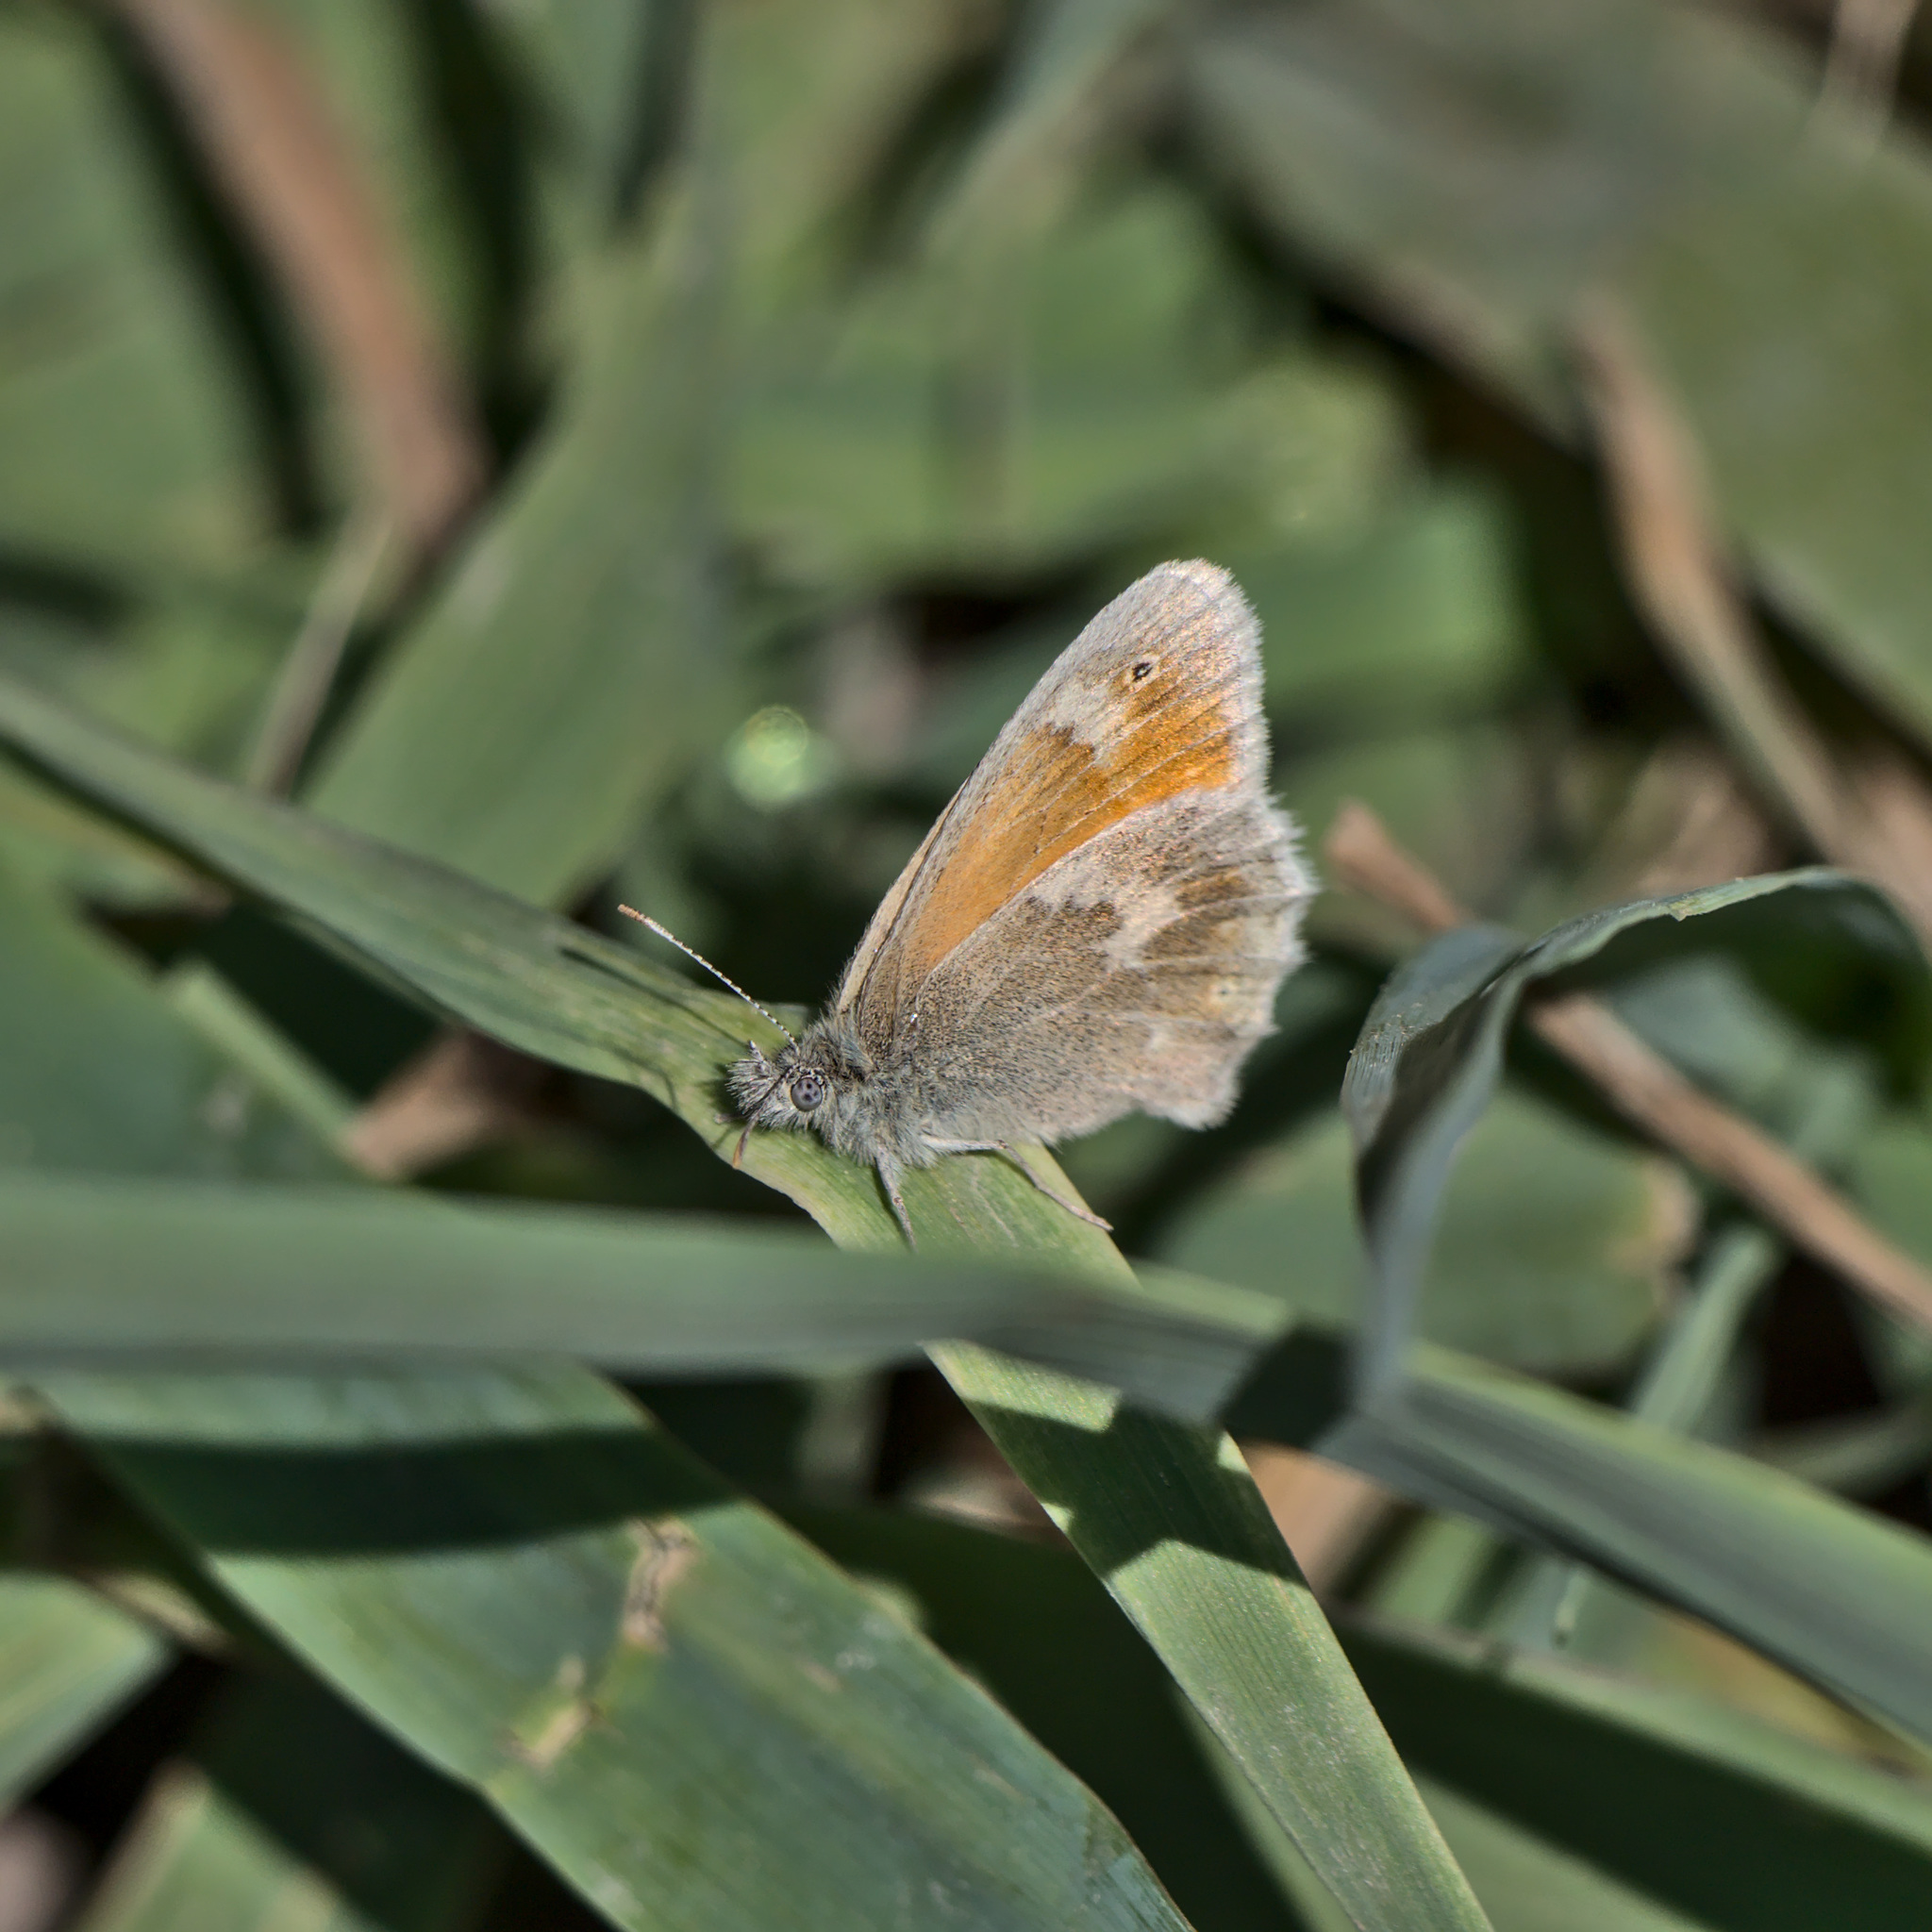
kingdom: Animalia
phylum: Arthropoda
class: Insecta
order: Lepidoptera
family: Nymphalidae
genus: Coenonympha
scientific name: Coenonympha california
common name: Common ringlet
